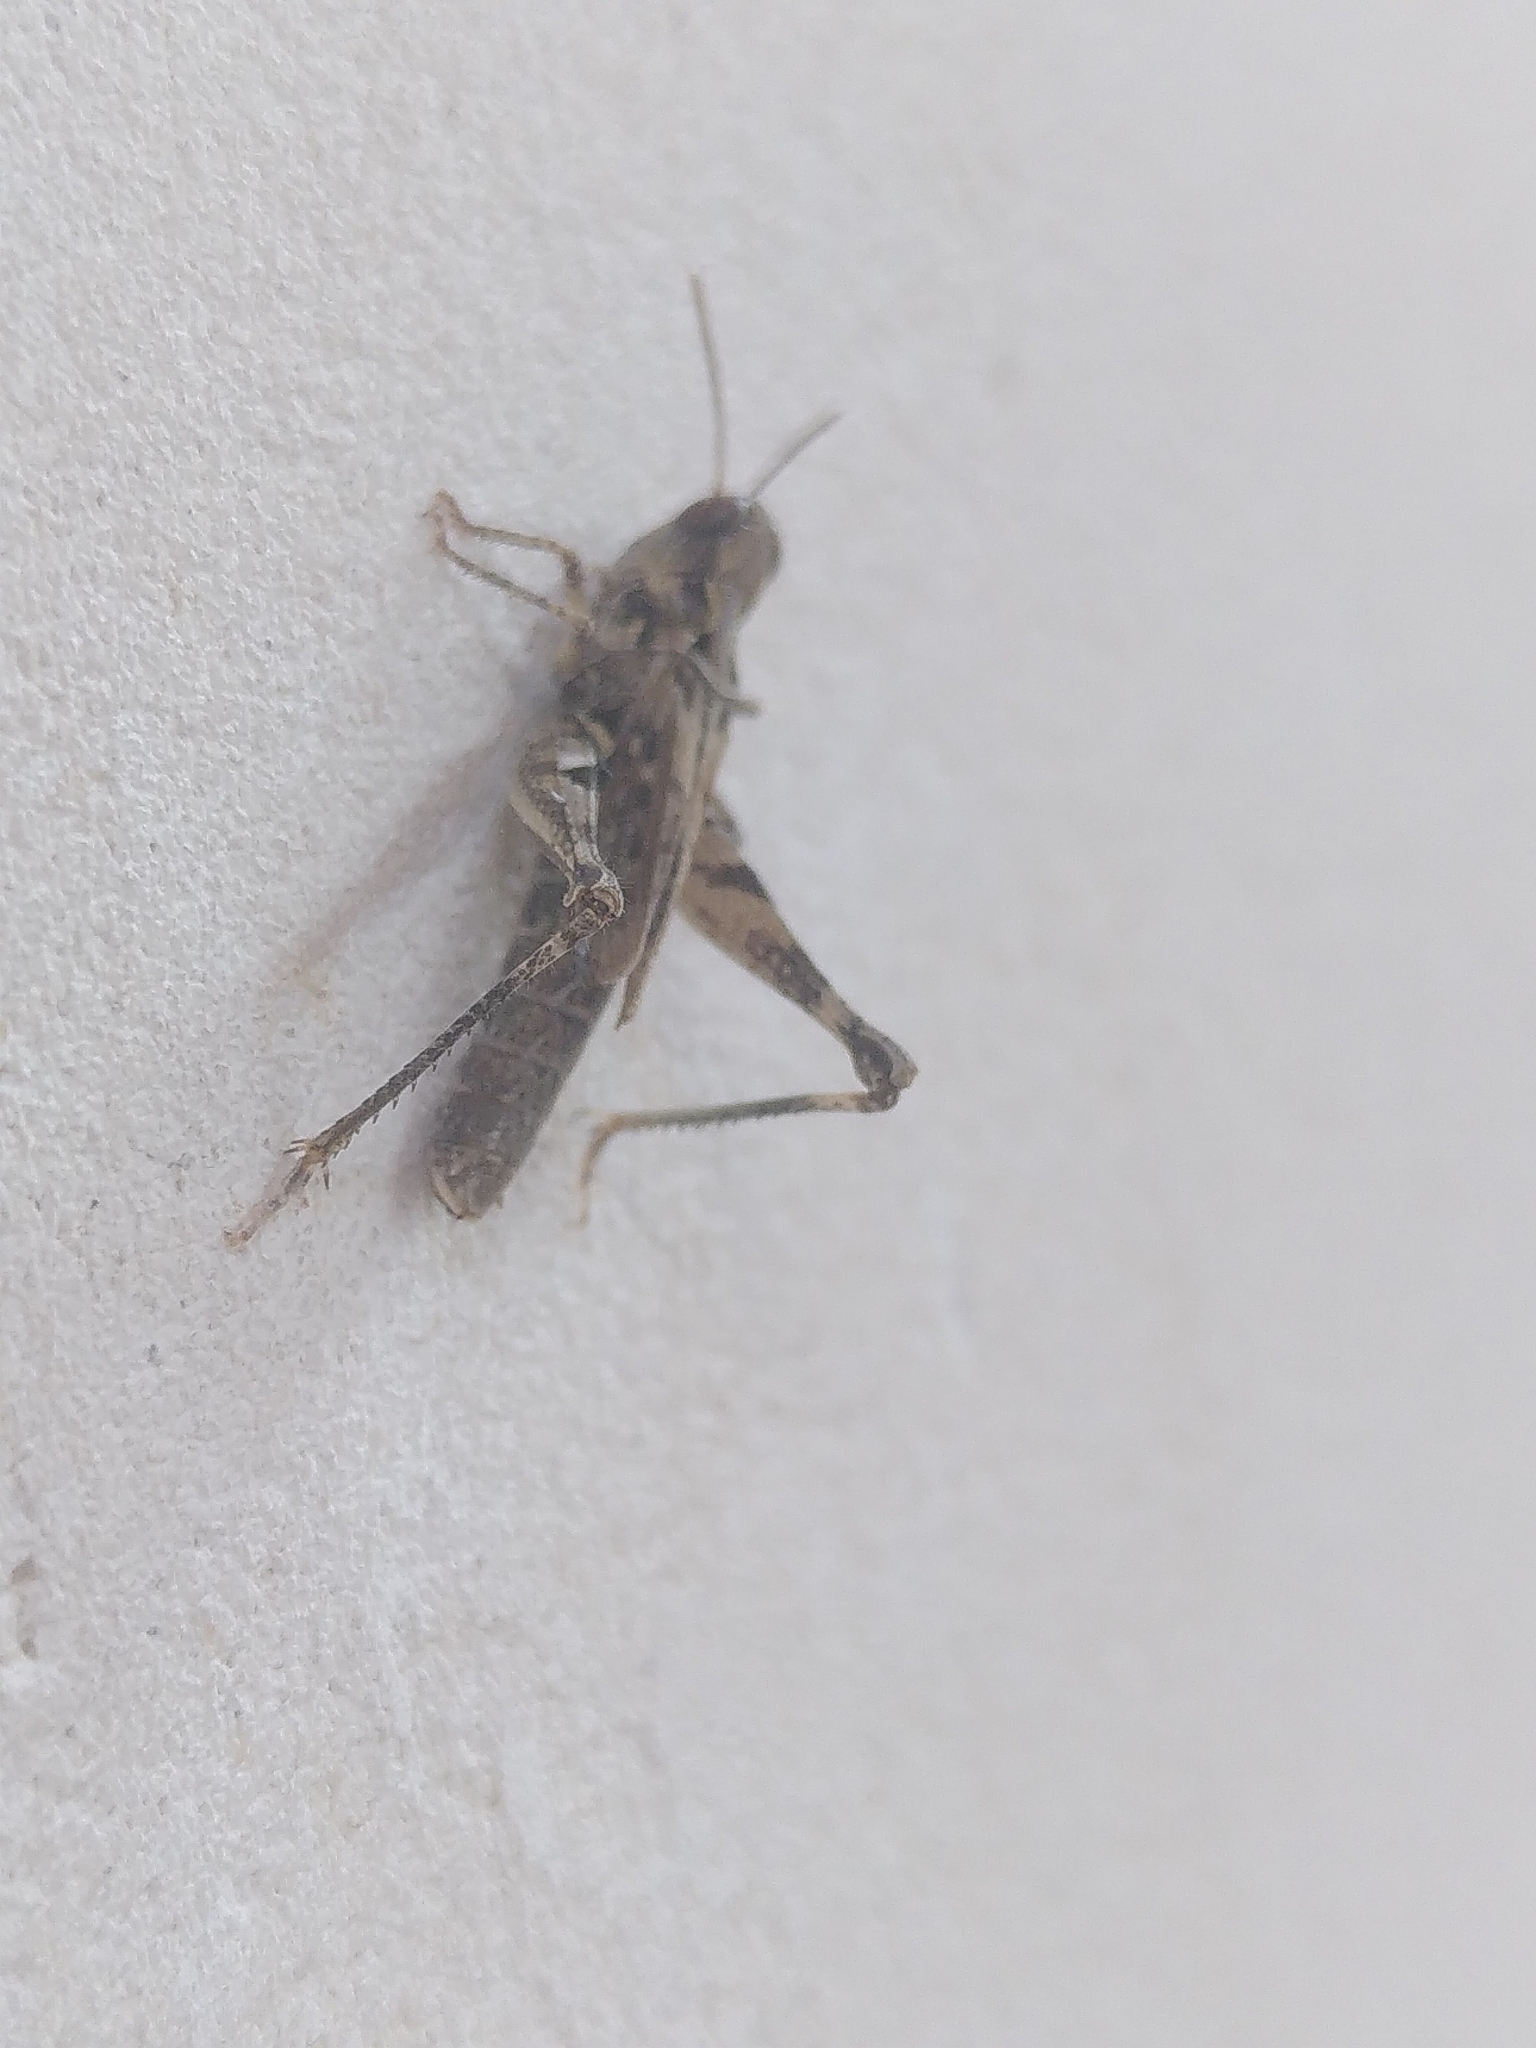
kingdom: Animalia
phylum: Arthropoda
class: Insecta
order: Orthoptera
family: Acrididae
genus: Dociostaurus
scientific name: Dociostaurus jagoi
